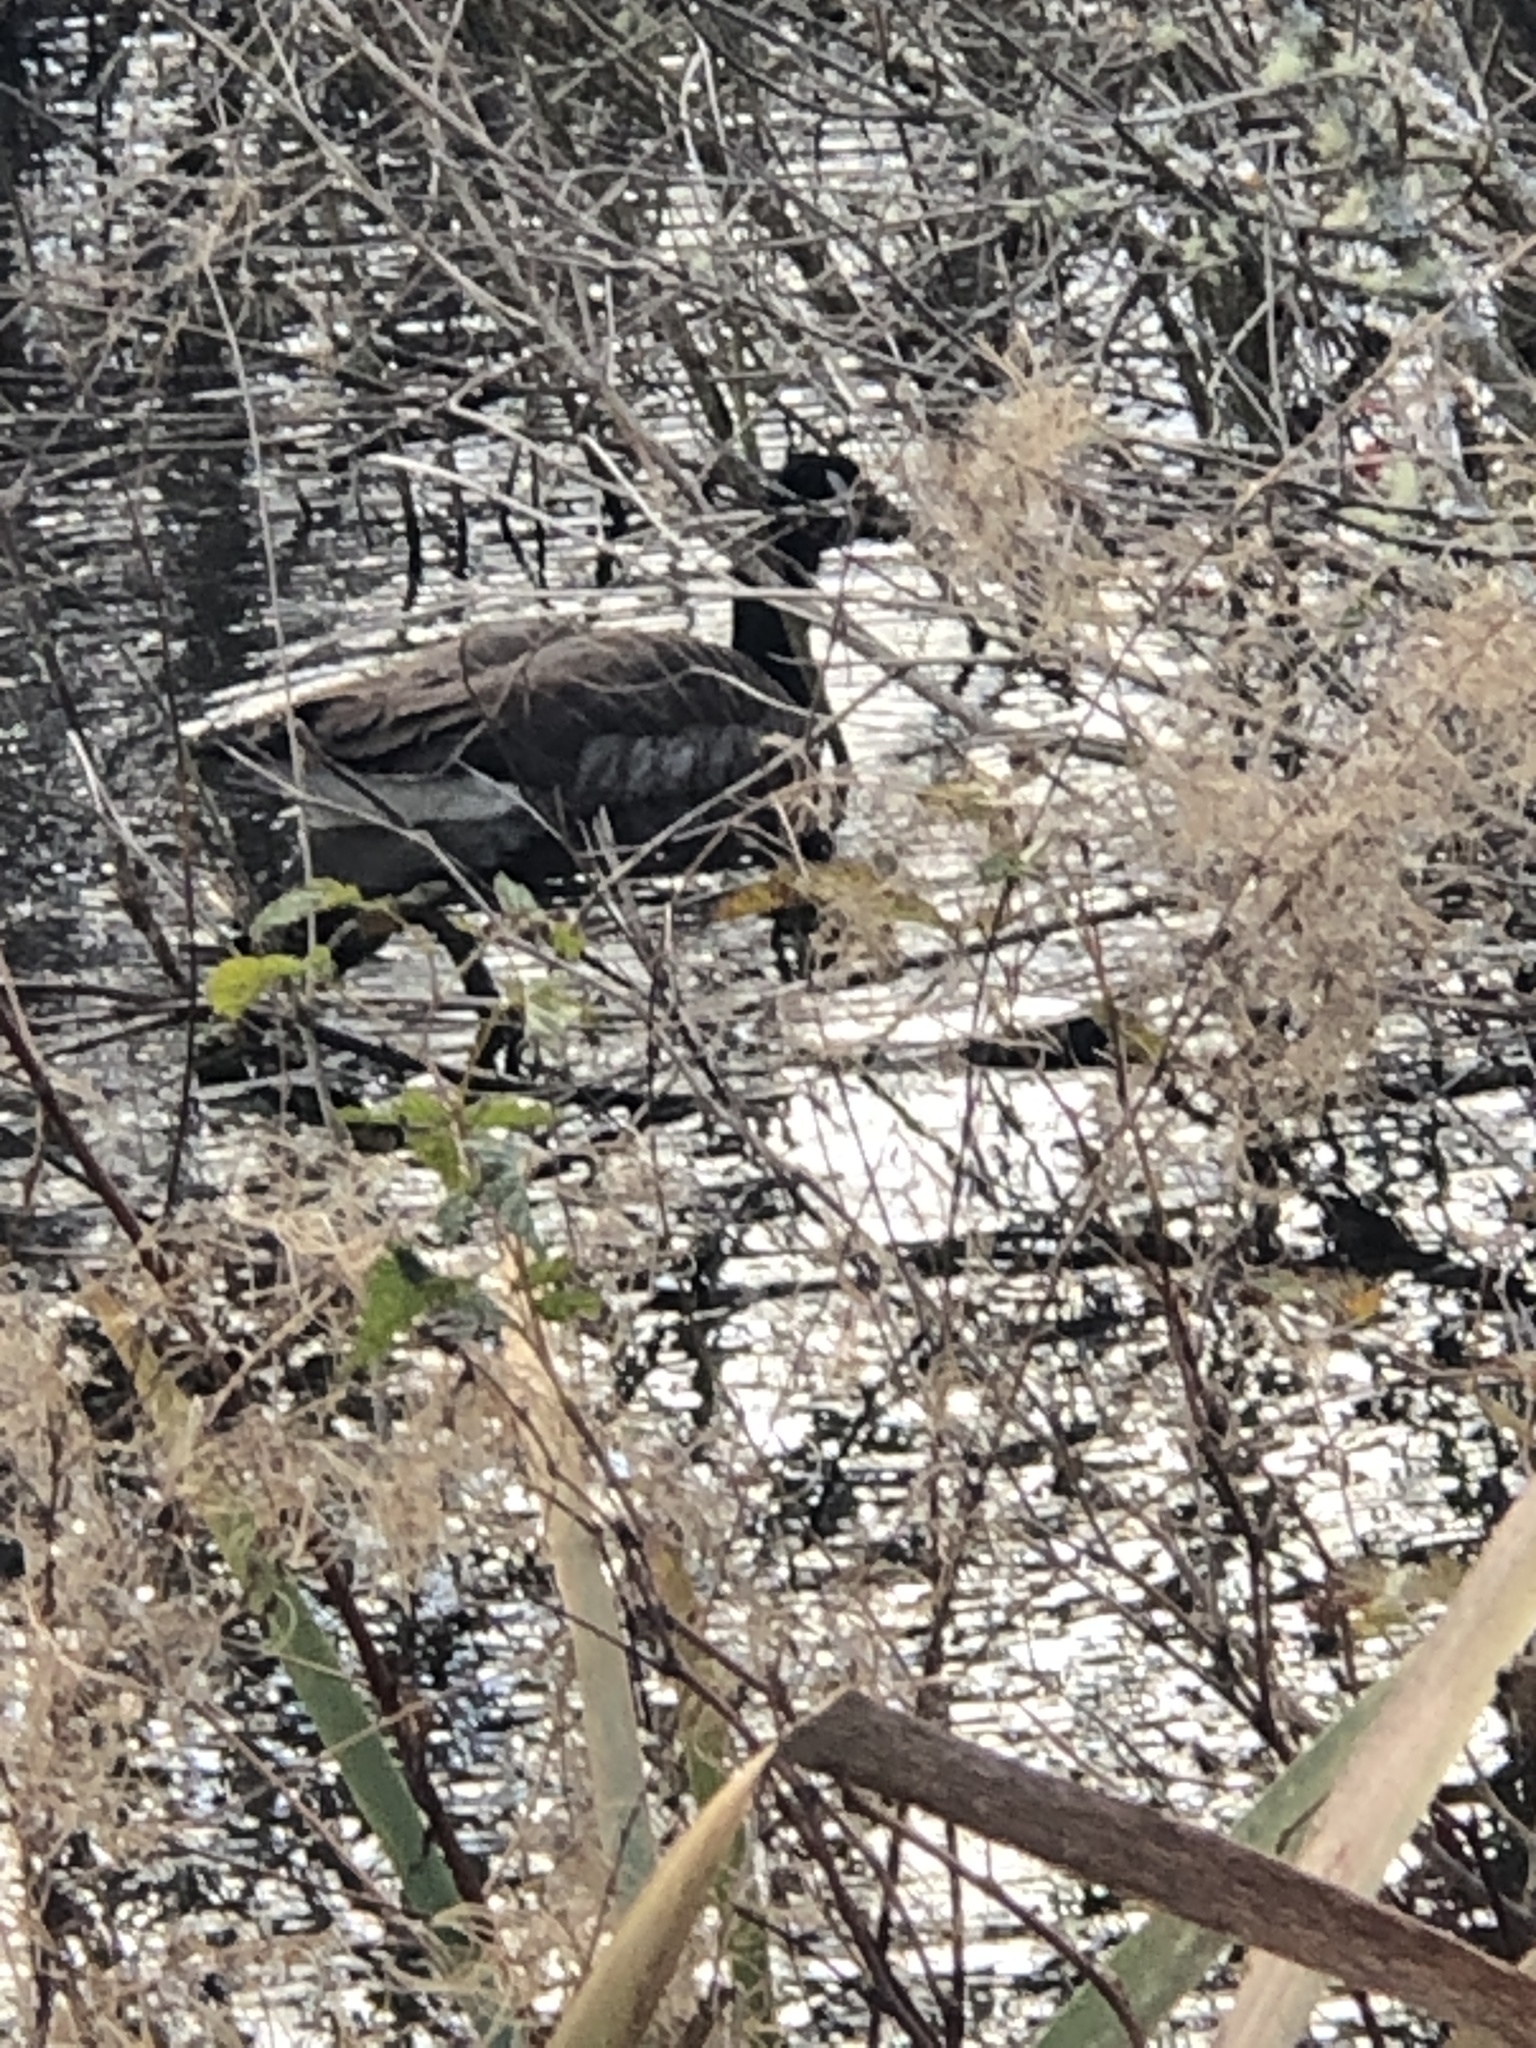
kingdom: Animalia
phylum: Chordata
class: Aves
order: Anseriformes
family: Anatidae
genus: Branta
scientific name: Branta canadensis
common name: Canada goose
